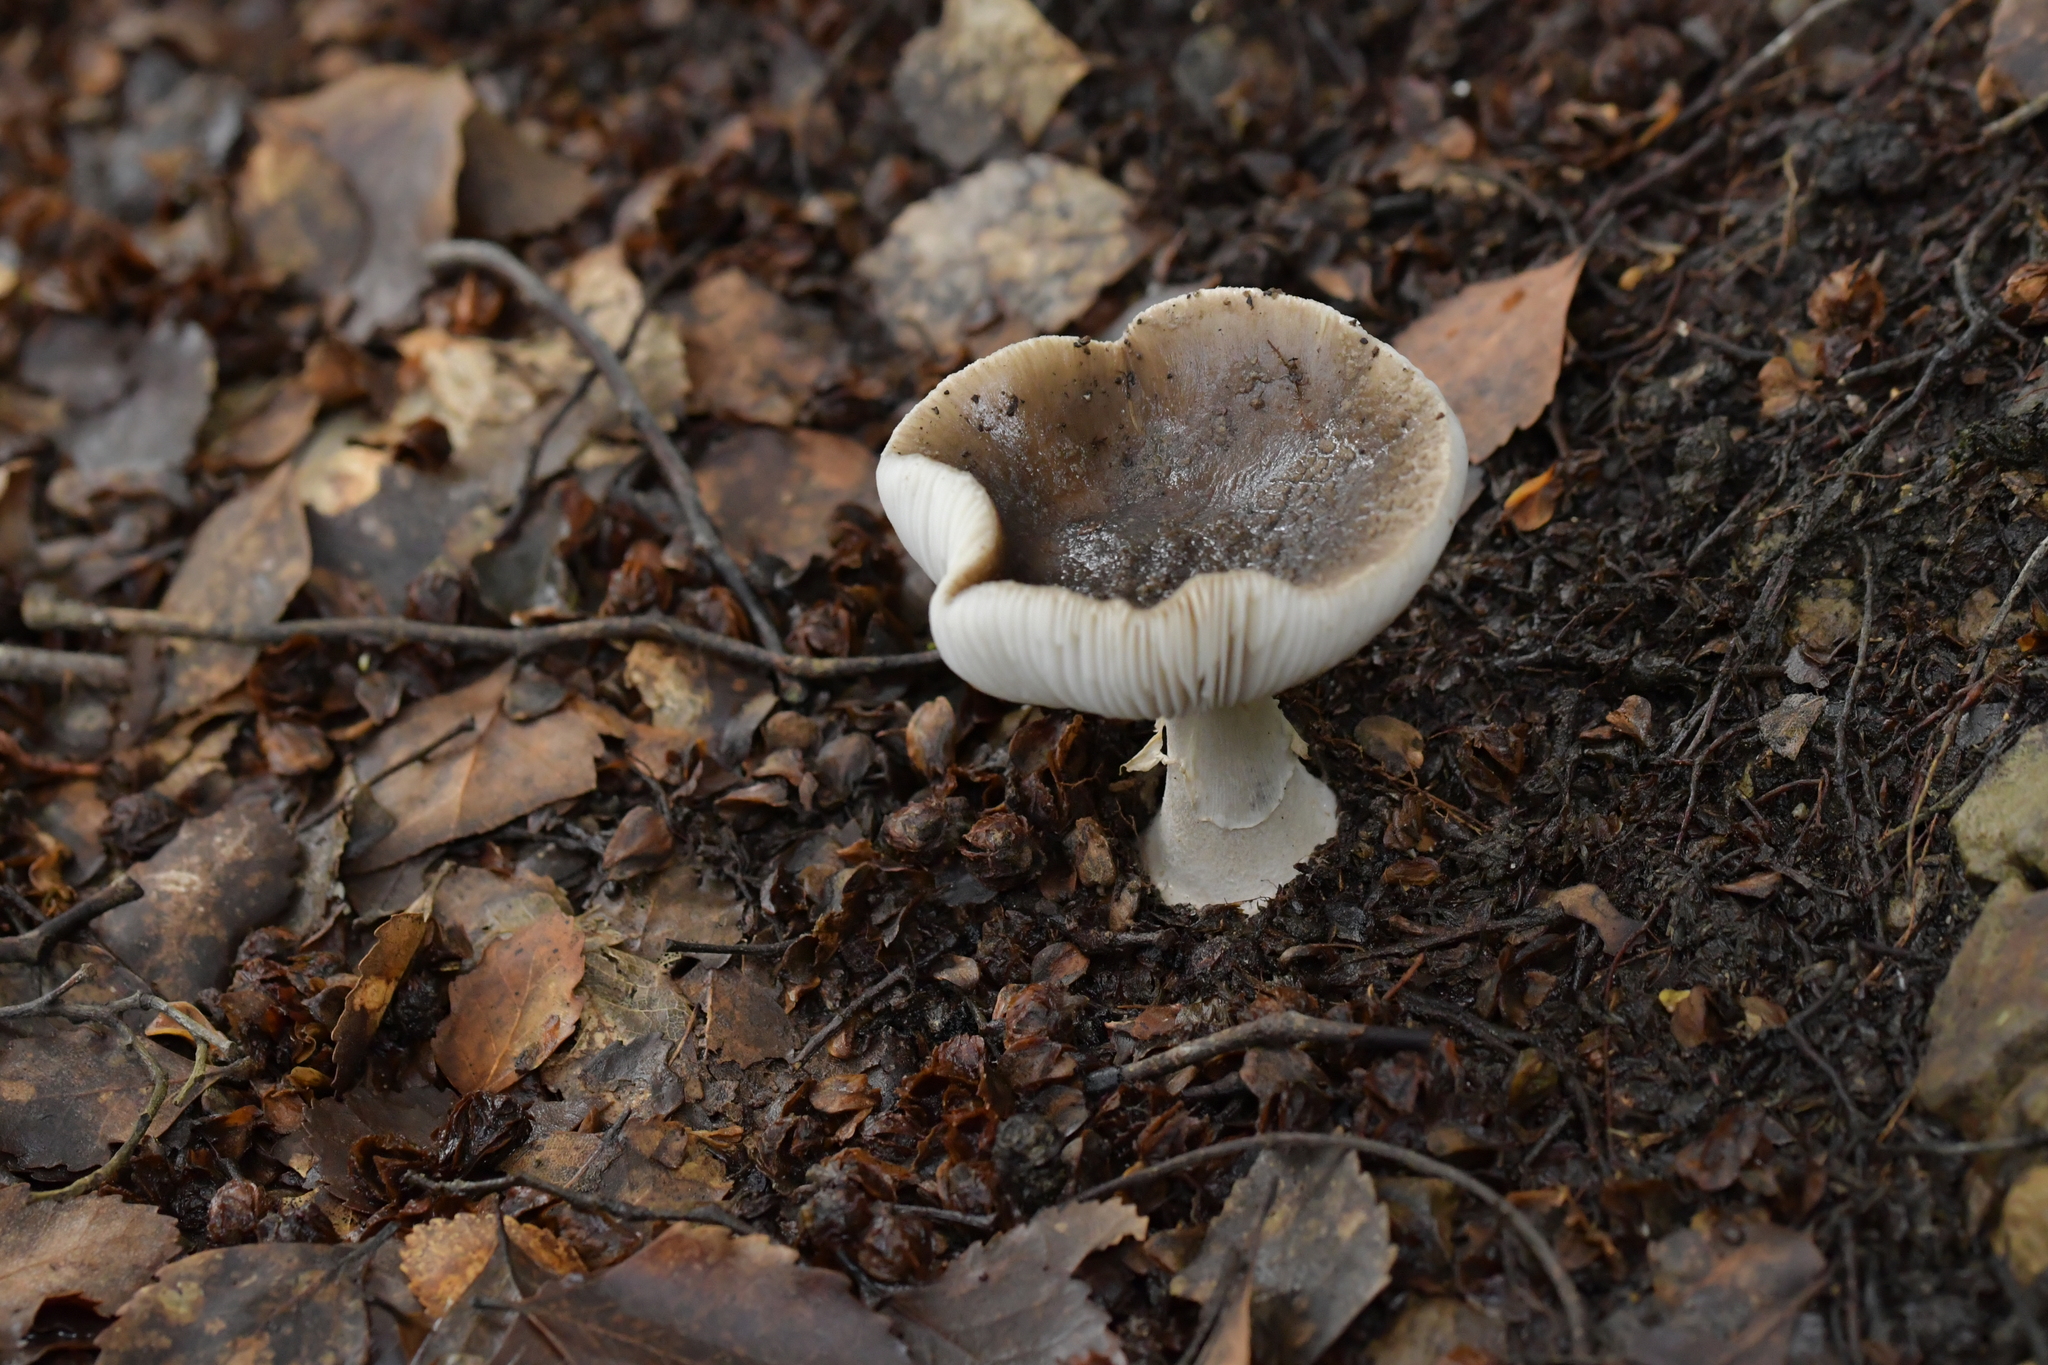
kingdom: Fungi
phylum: Basidiomycota
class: Agaricomycetes
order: Agaricales
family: Amanitaceae
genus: Amanita
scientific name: Amanita nothofagi
